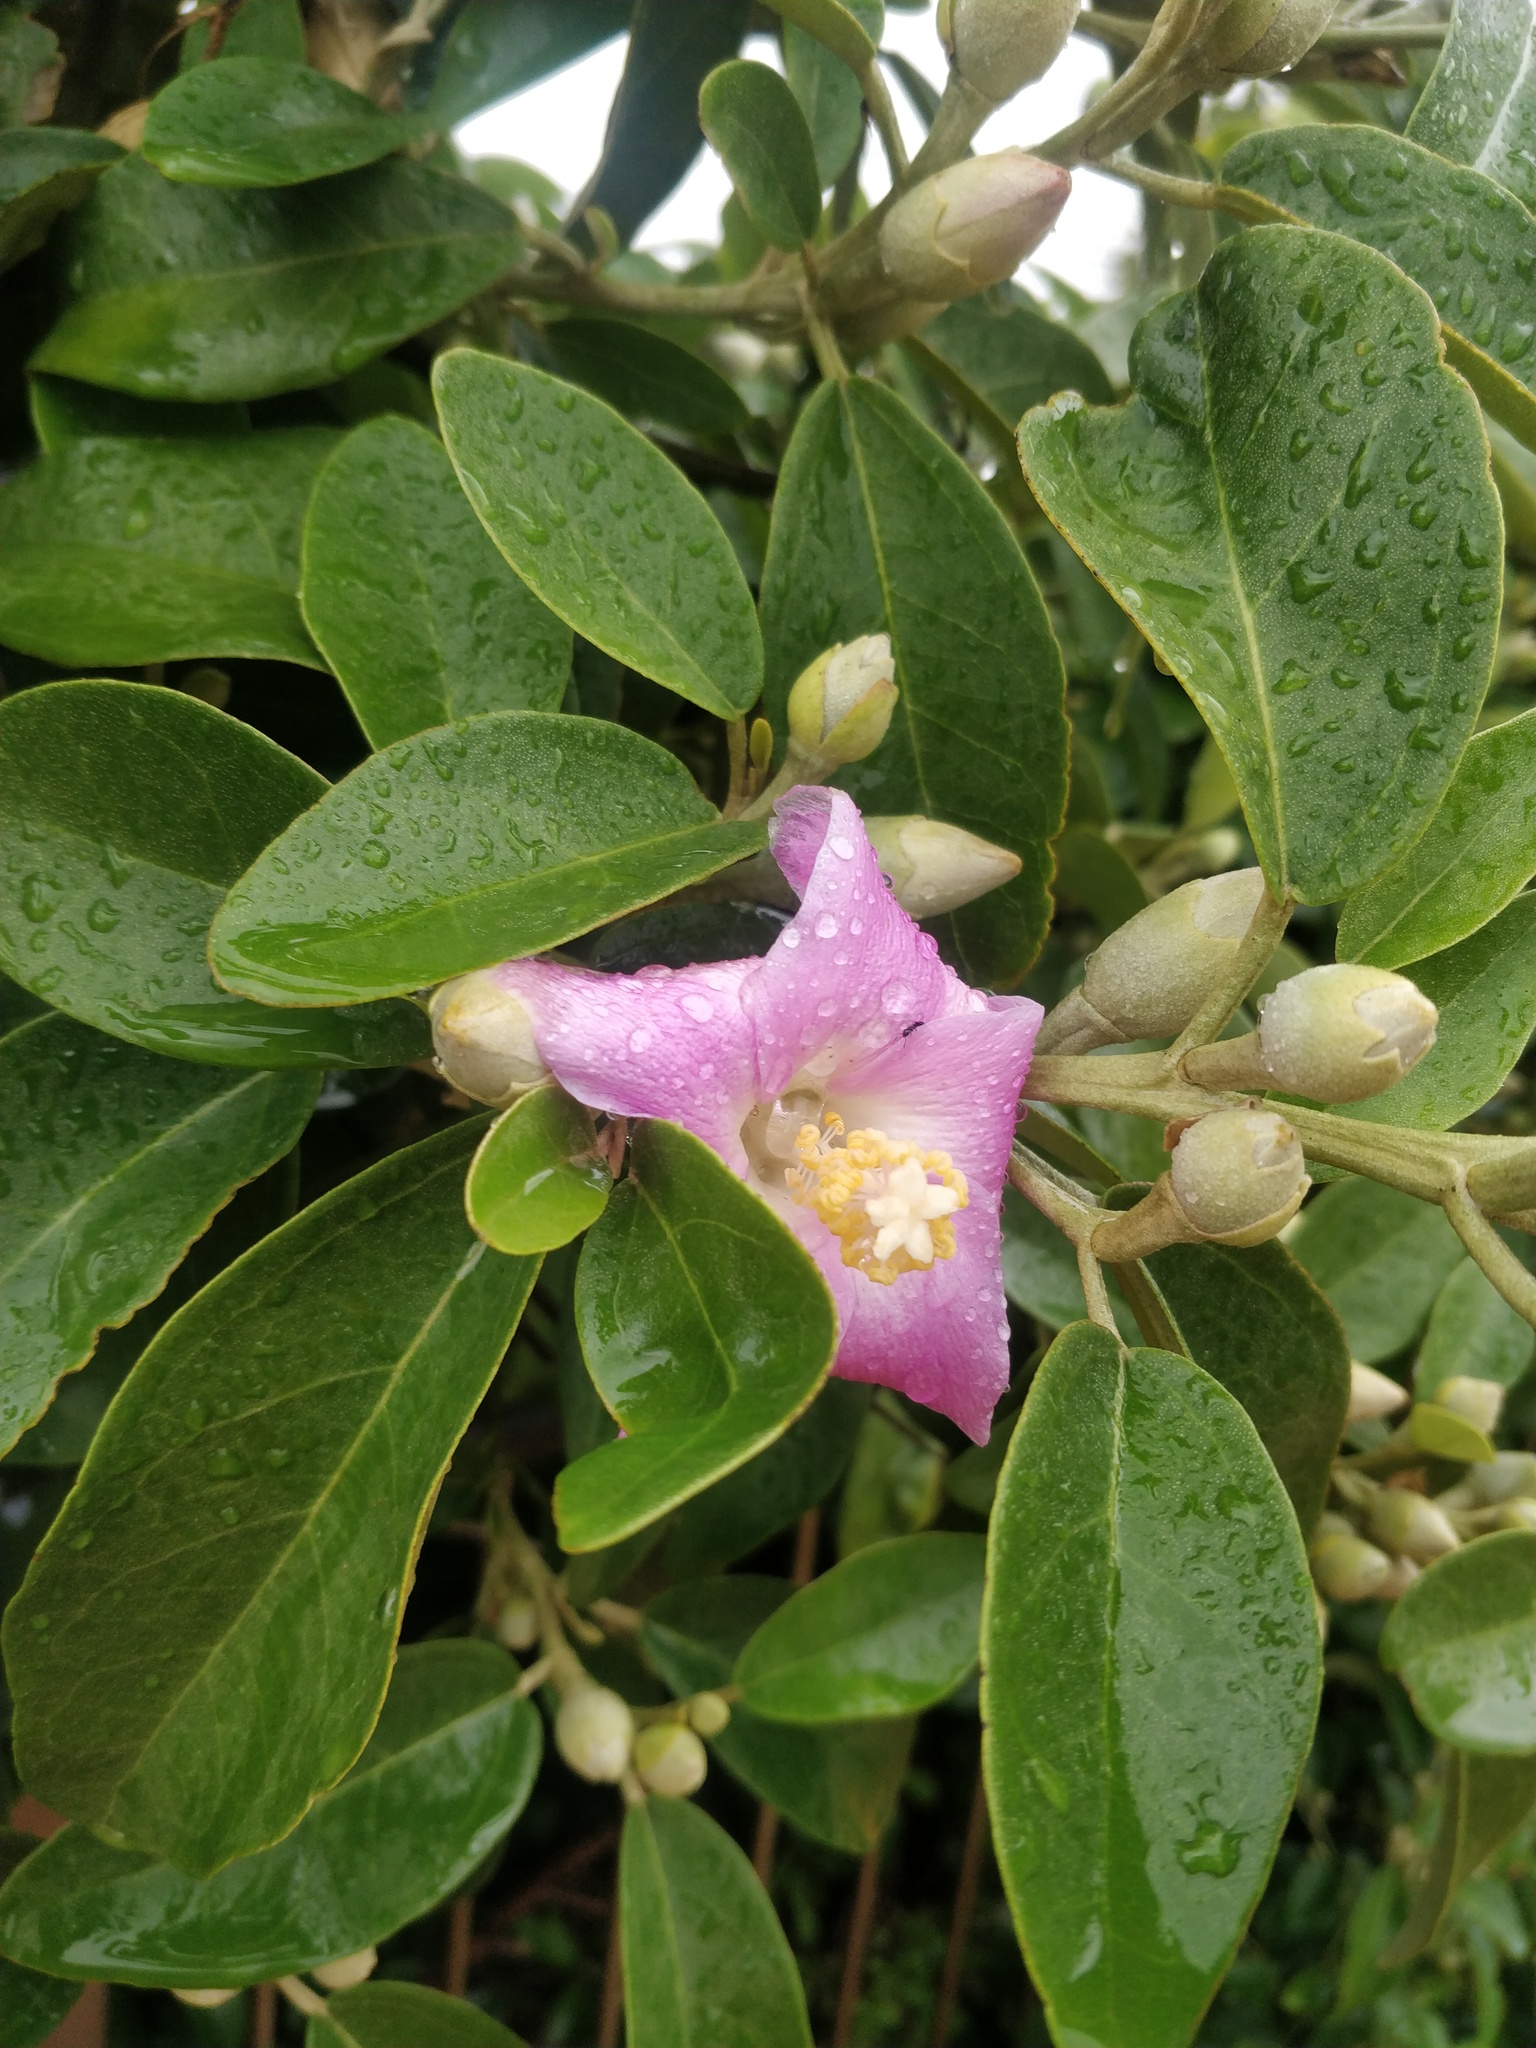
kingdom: Plantae
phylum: Tracheophyta
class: Magnoliopsida
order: Malvales
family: Malvaceae
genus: Lagunaria
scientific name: Lagunaria patersonia
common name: Cow itch tree
